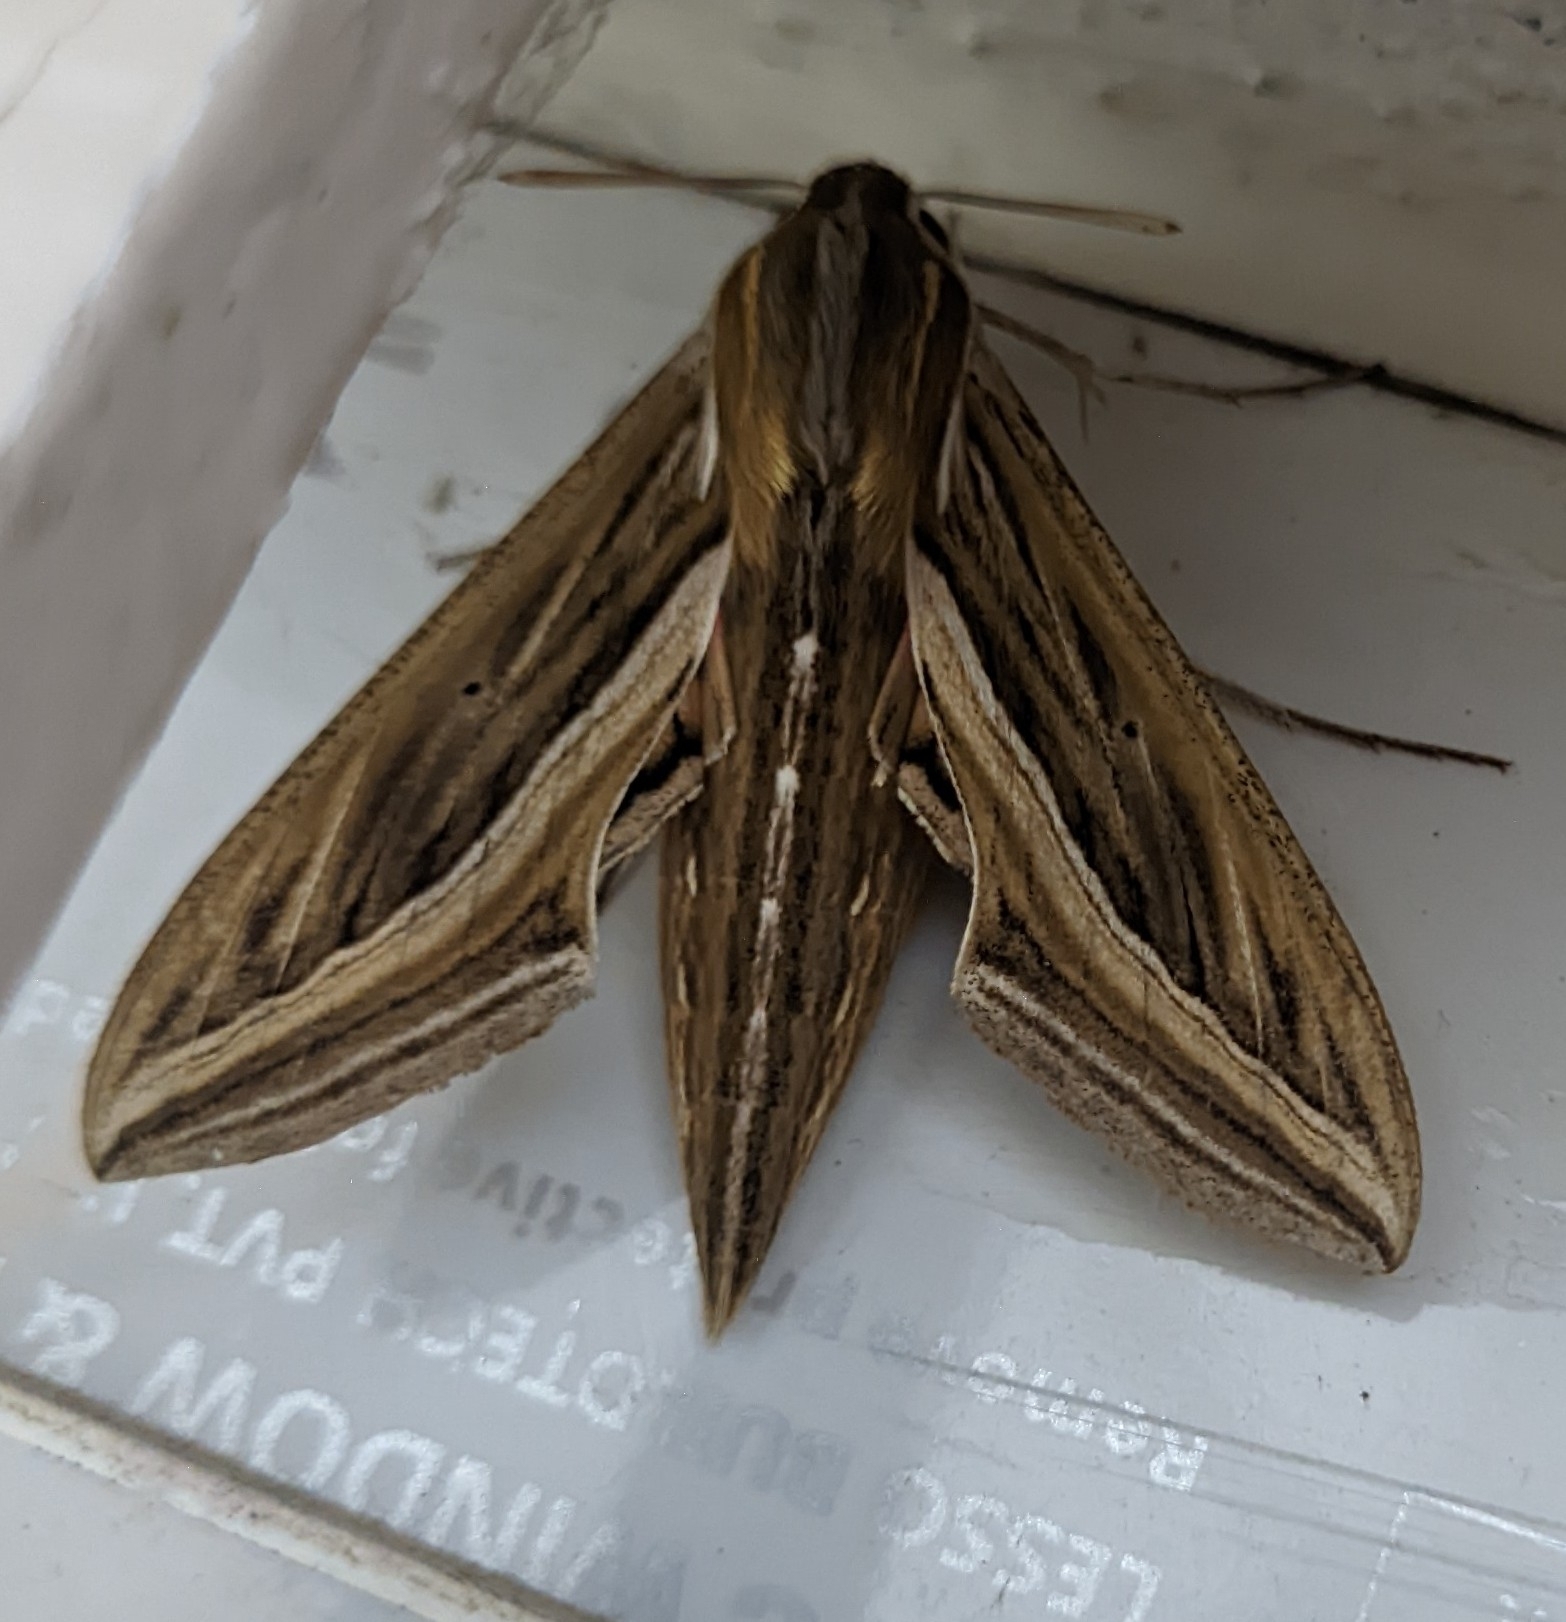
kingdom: Animalia
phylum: Arthropoda
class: Insecta
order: Lepidoptera
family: Sphingidae
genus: Hippotion
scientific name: Hippotion celerio
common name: Silver-striped hawk-moth
